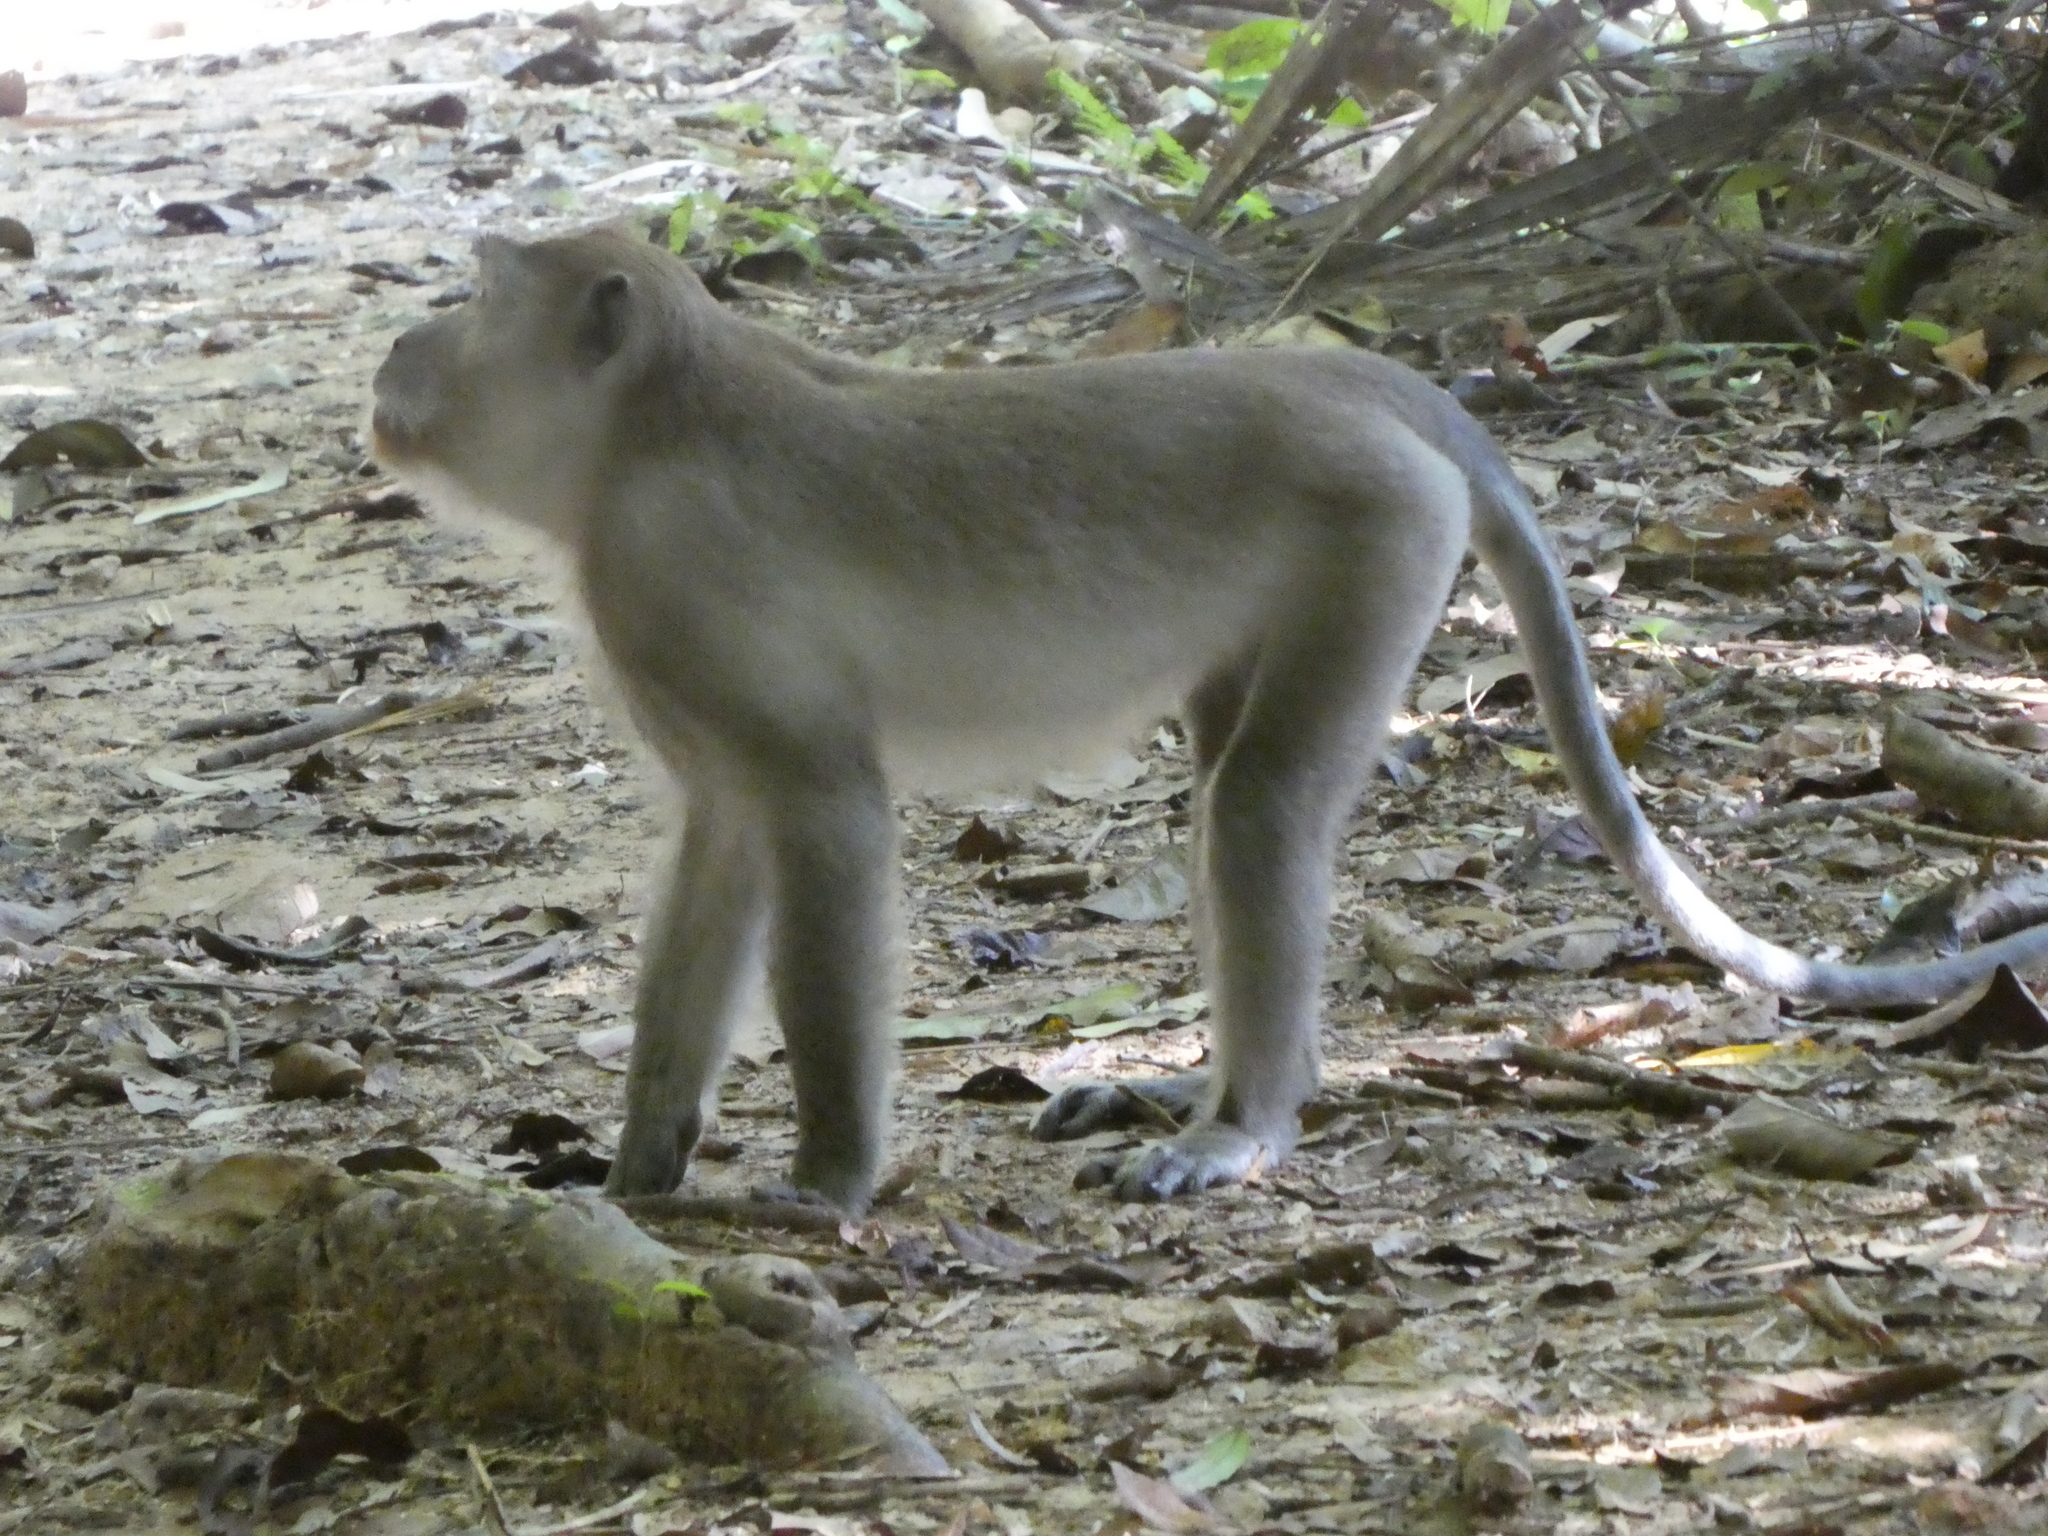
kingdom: Animalia
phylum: Chordata
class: Mammalia
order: Primates
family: Cercopithecidae
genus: Macaca
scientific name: Macaca fascicularis
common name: Crab-eating macaque
